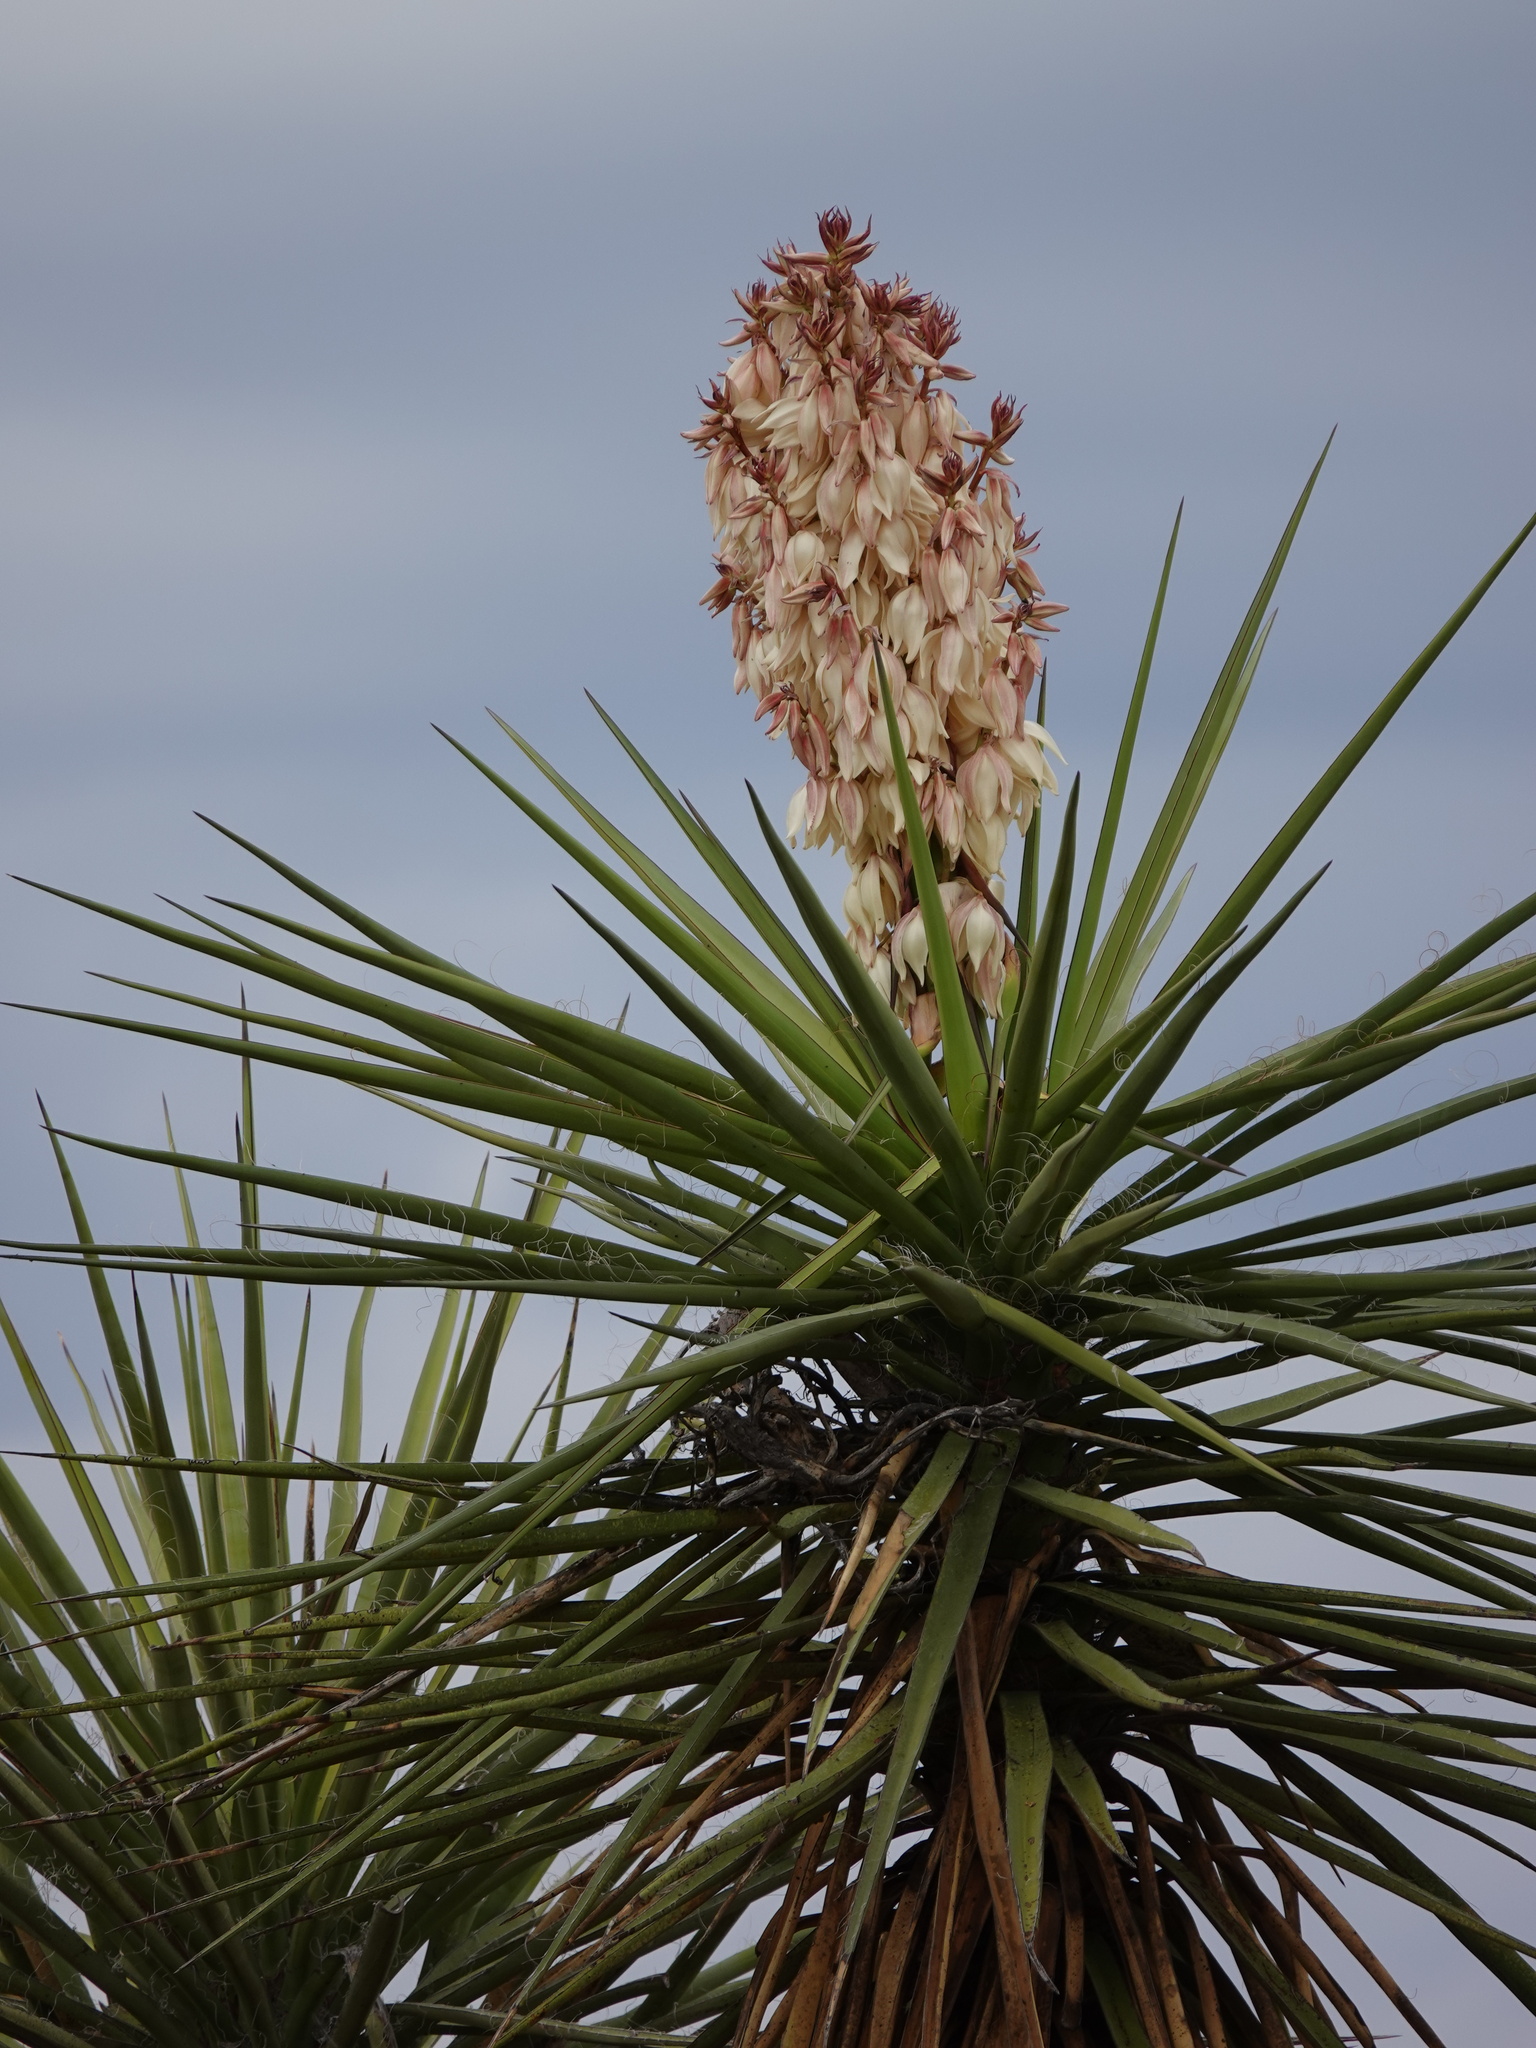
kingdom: Plantae
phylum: Tracheophyta
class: Liliopsida
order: Asparagales
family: Asparagaceae
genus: Yucca
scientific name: Yucca treculiana
